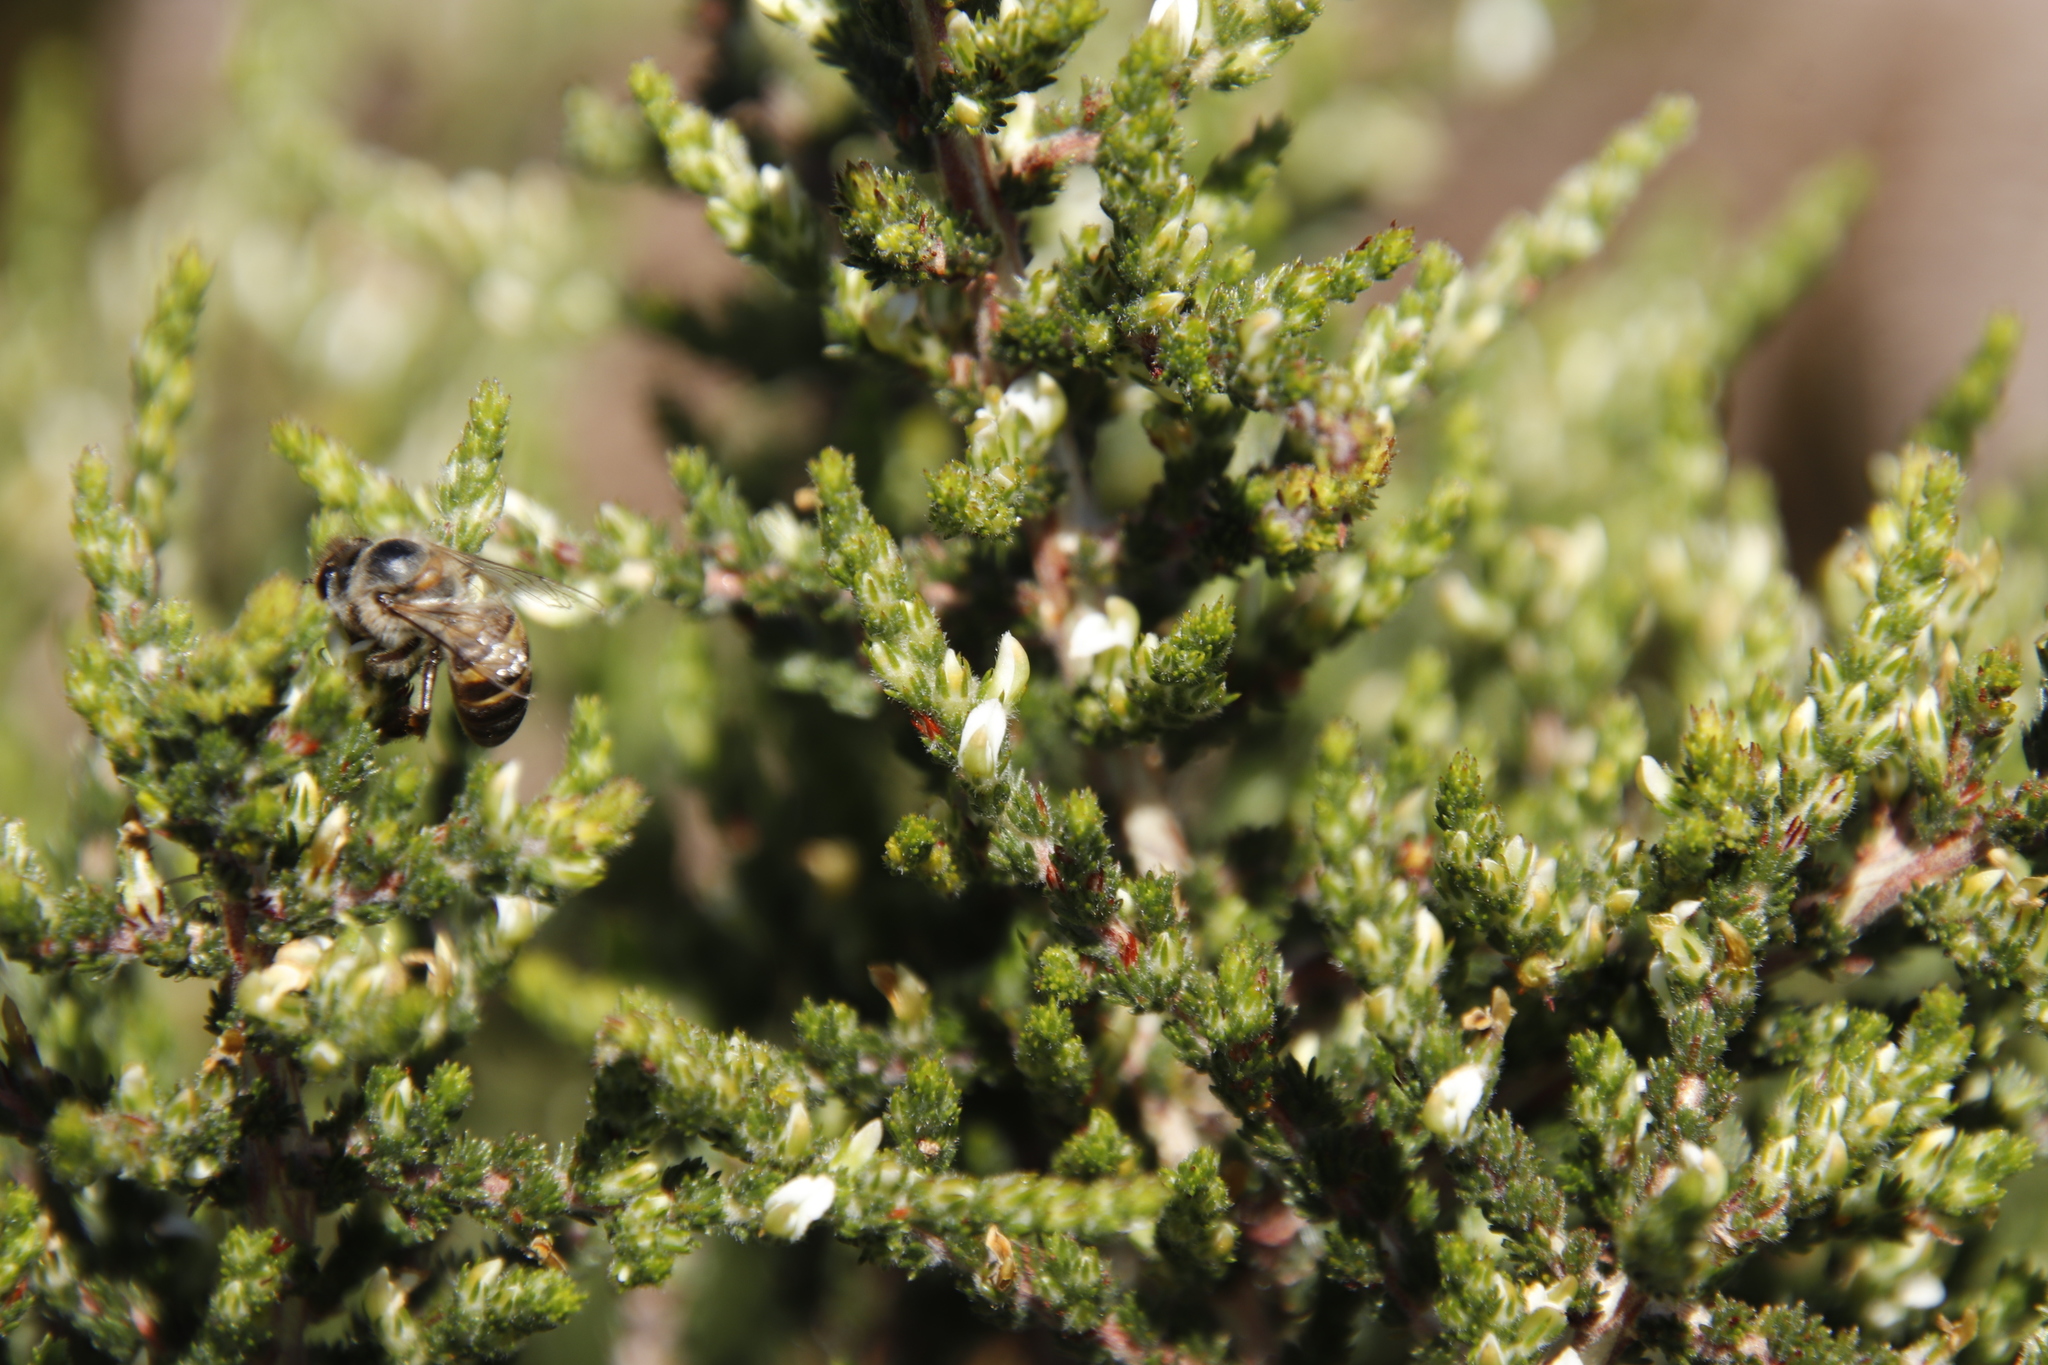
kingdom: Animalia
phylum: Arthropoda
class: Insecta
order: Hymenoptera
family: Apidae
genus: Apis
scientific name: Apis mellifera
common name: Honey bee
